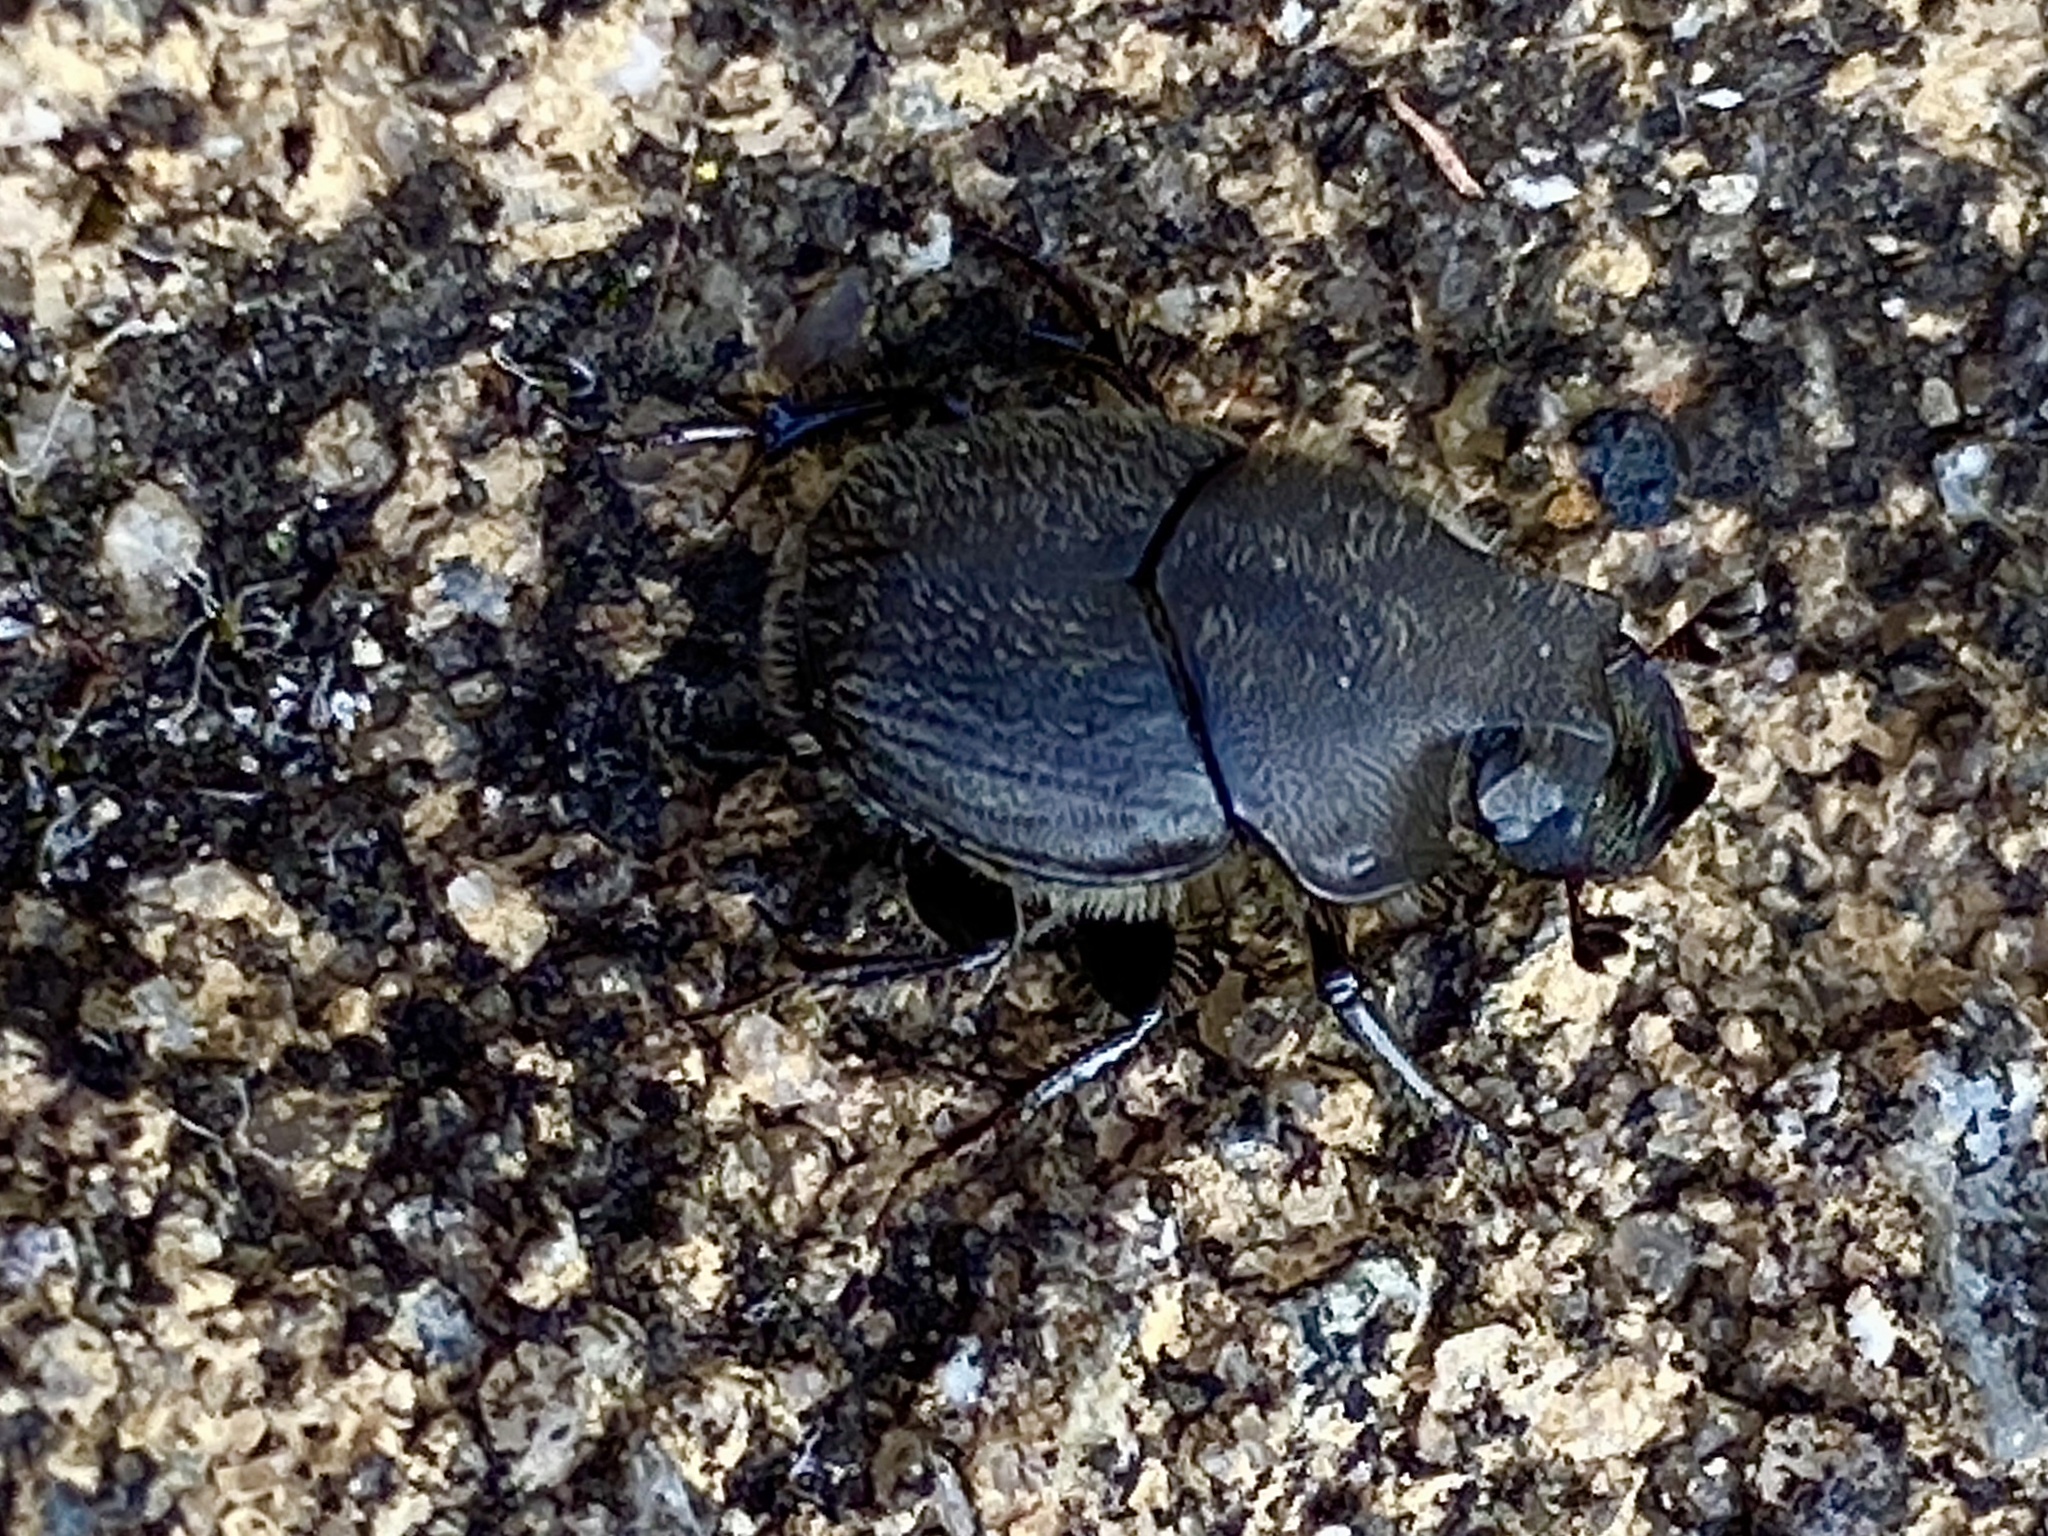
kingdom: Animalia
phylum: Arthropoda
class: Insecta
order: Coleoptera
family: Scarabaeidae
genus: Onthophagus
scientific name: Onthophagus hecate
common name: Scooped scarab
